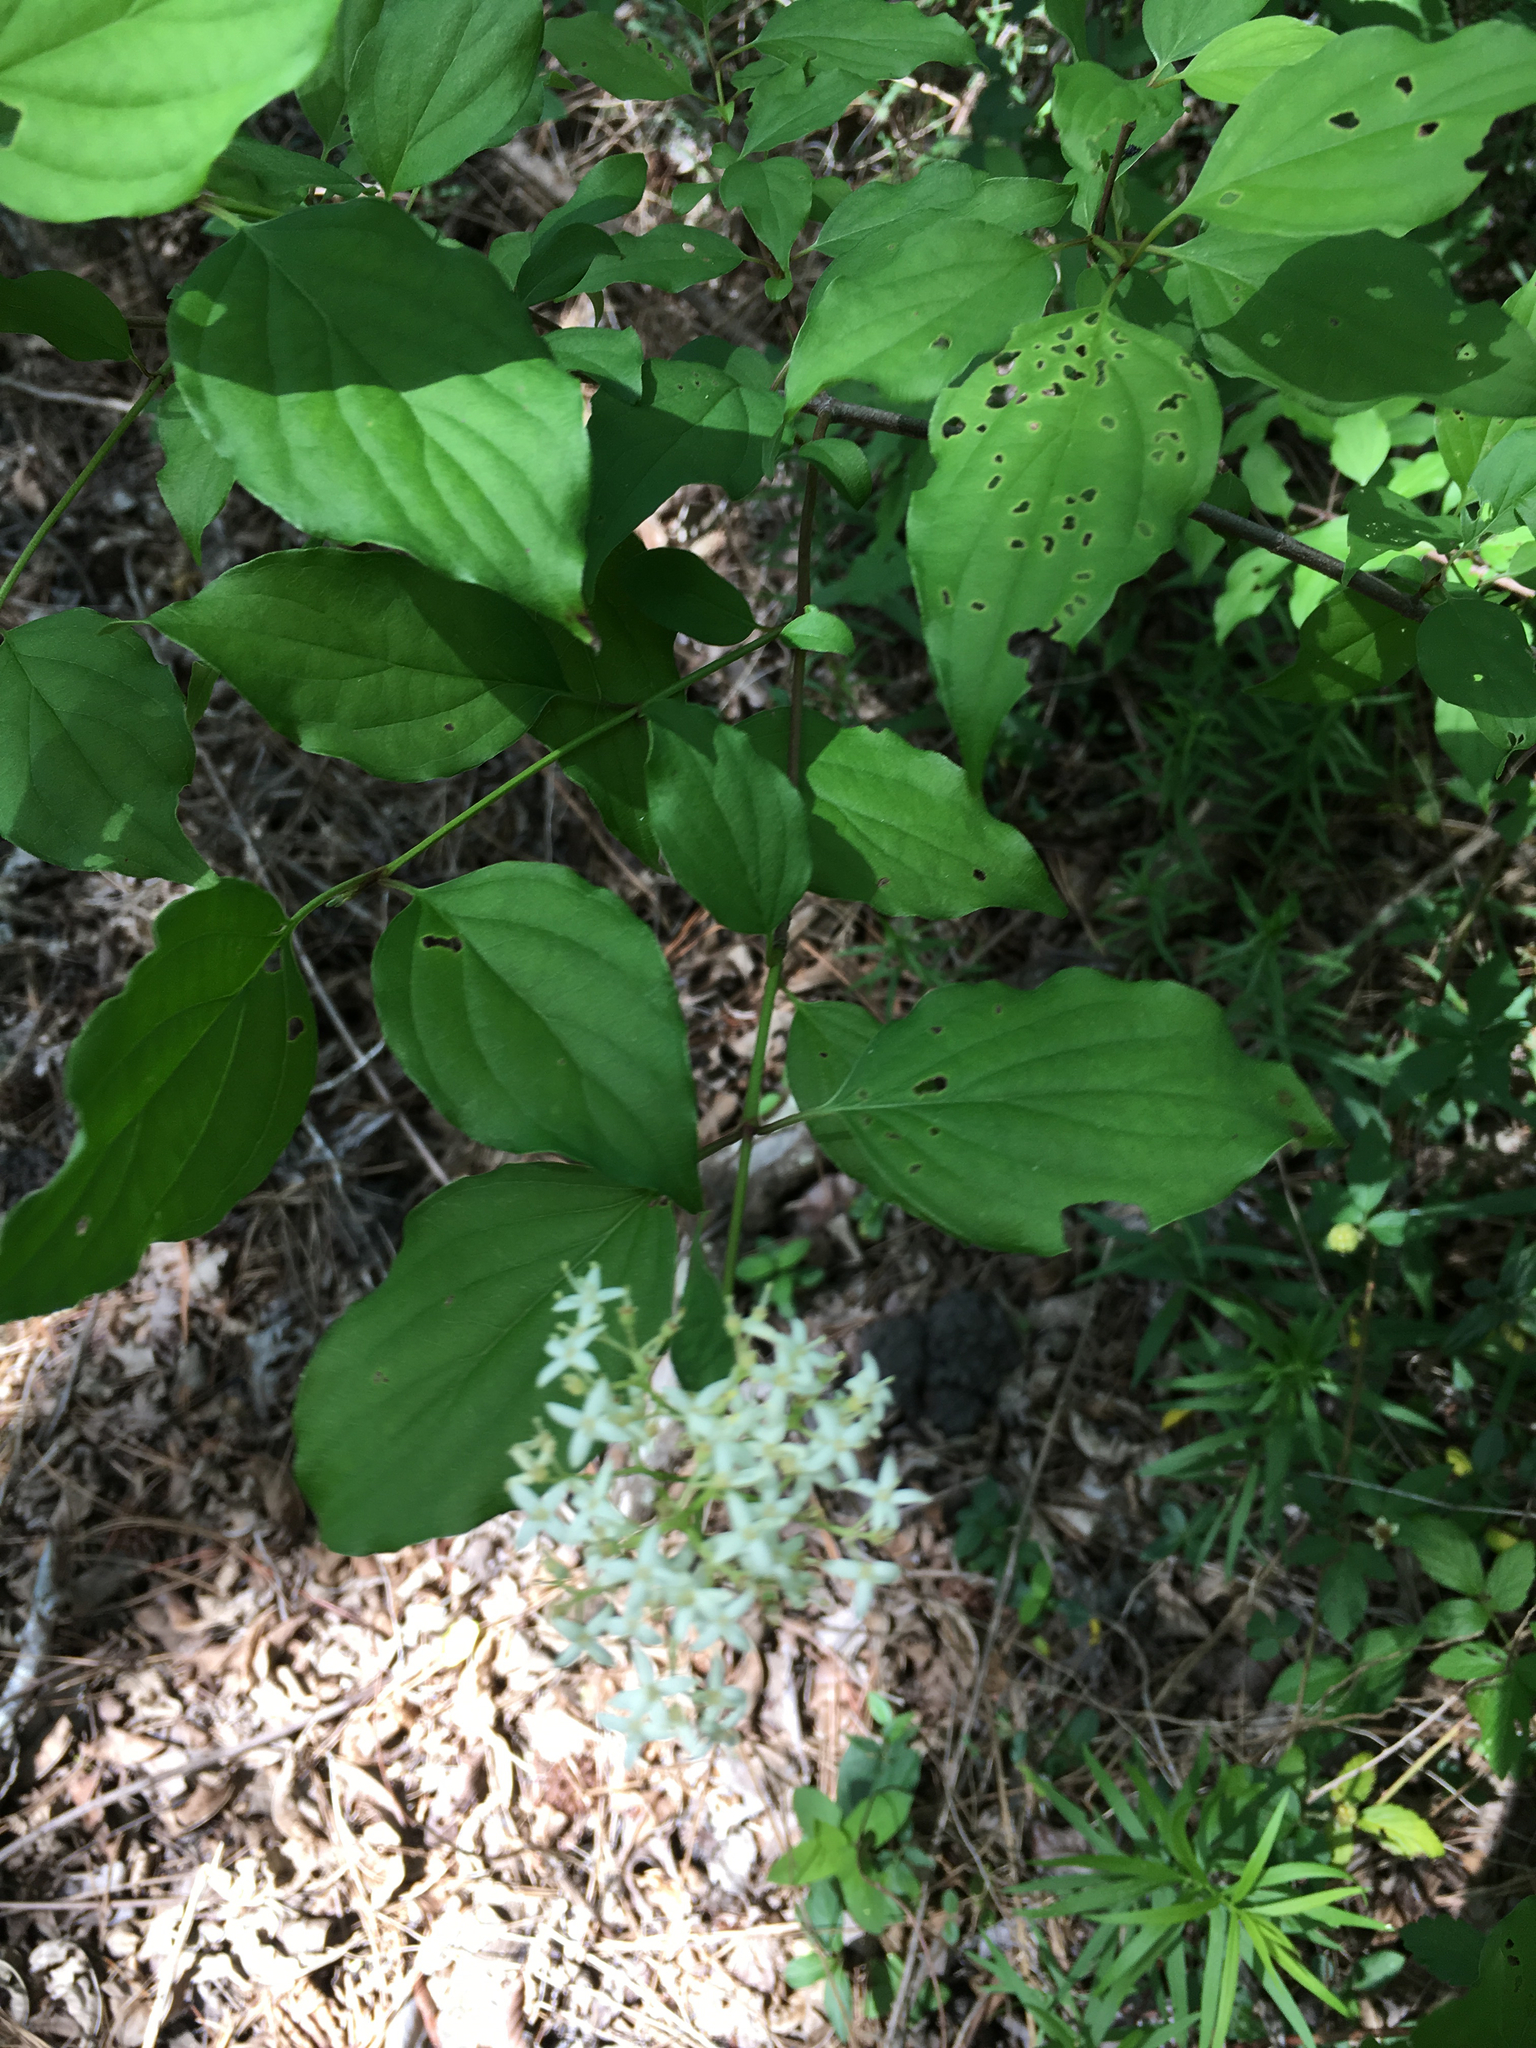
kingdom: Plantae
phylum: Tracheophyta
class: Magnoliopsida
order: Cornales
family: Cornaceae
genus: Cornus
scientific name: Cornus drummondii
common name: Rough-leaf dogwood
